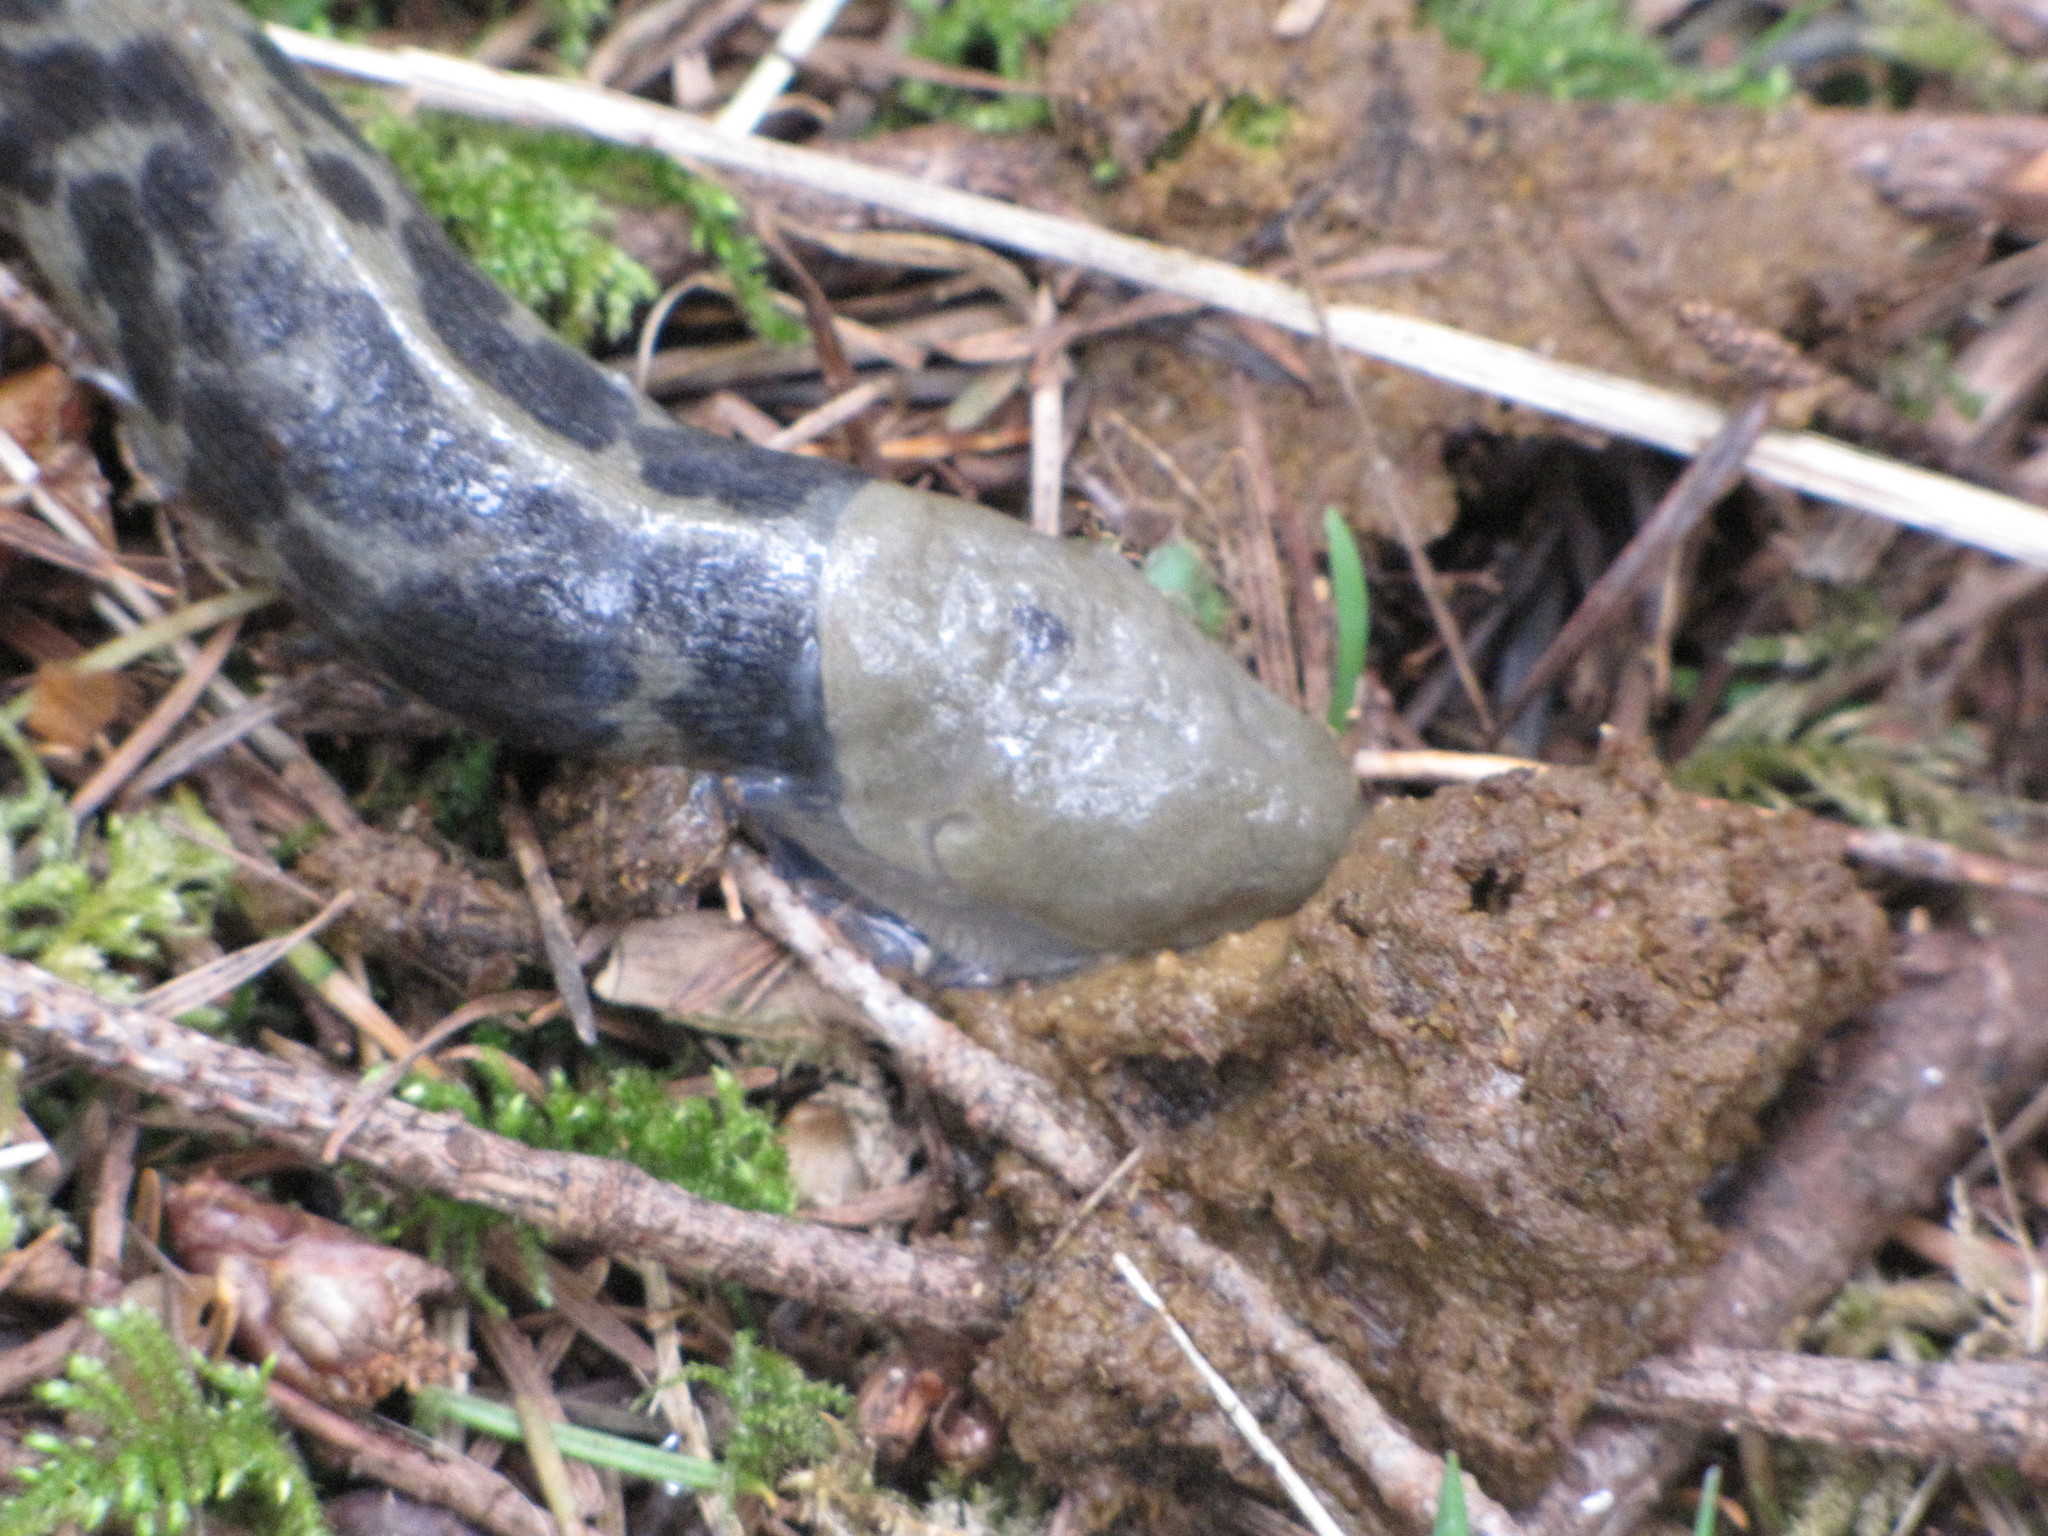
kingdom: Animalia
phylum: Mollusca
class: Gastropoda
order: Stylommatophora
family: Ariolimacidae
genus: Ariolimax
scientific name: Ariolimax columbianus
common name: Pacific banana slug
